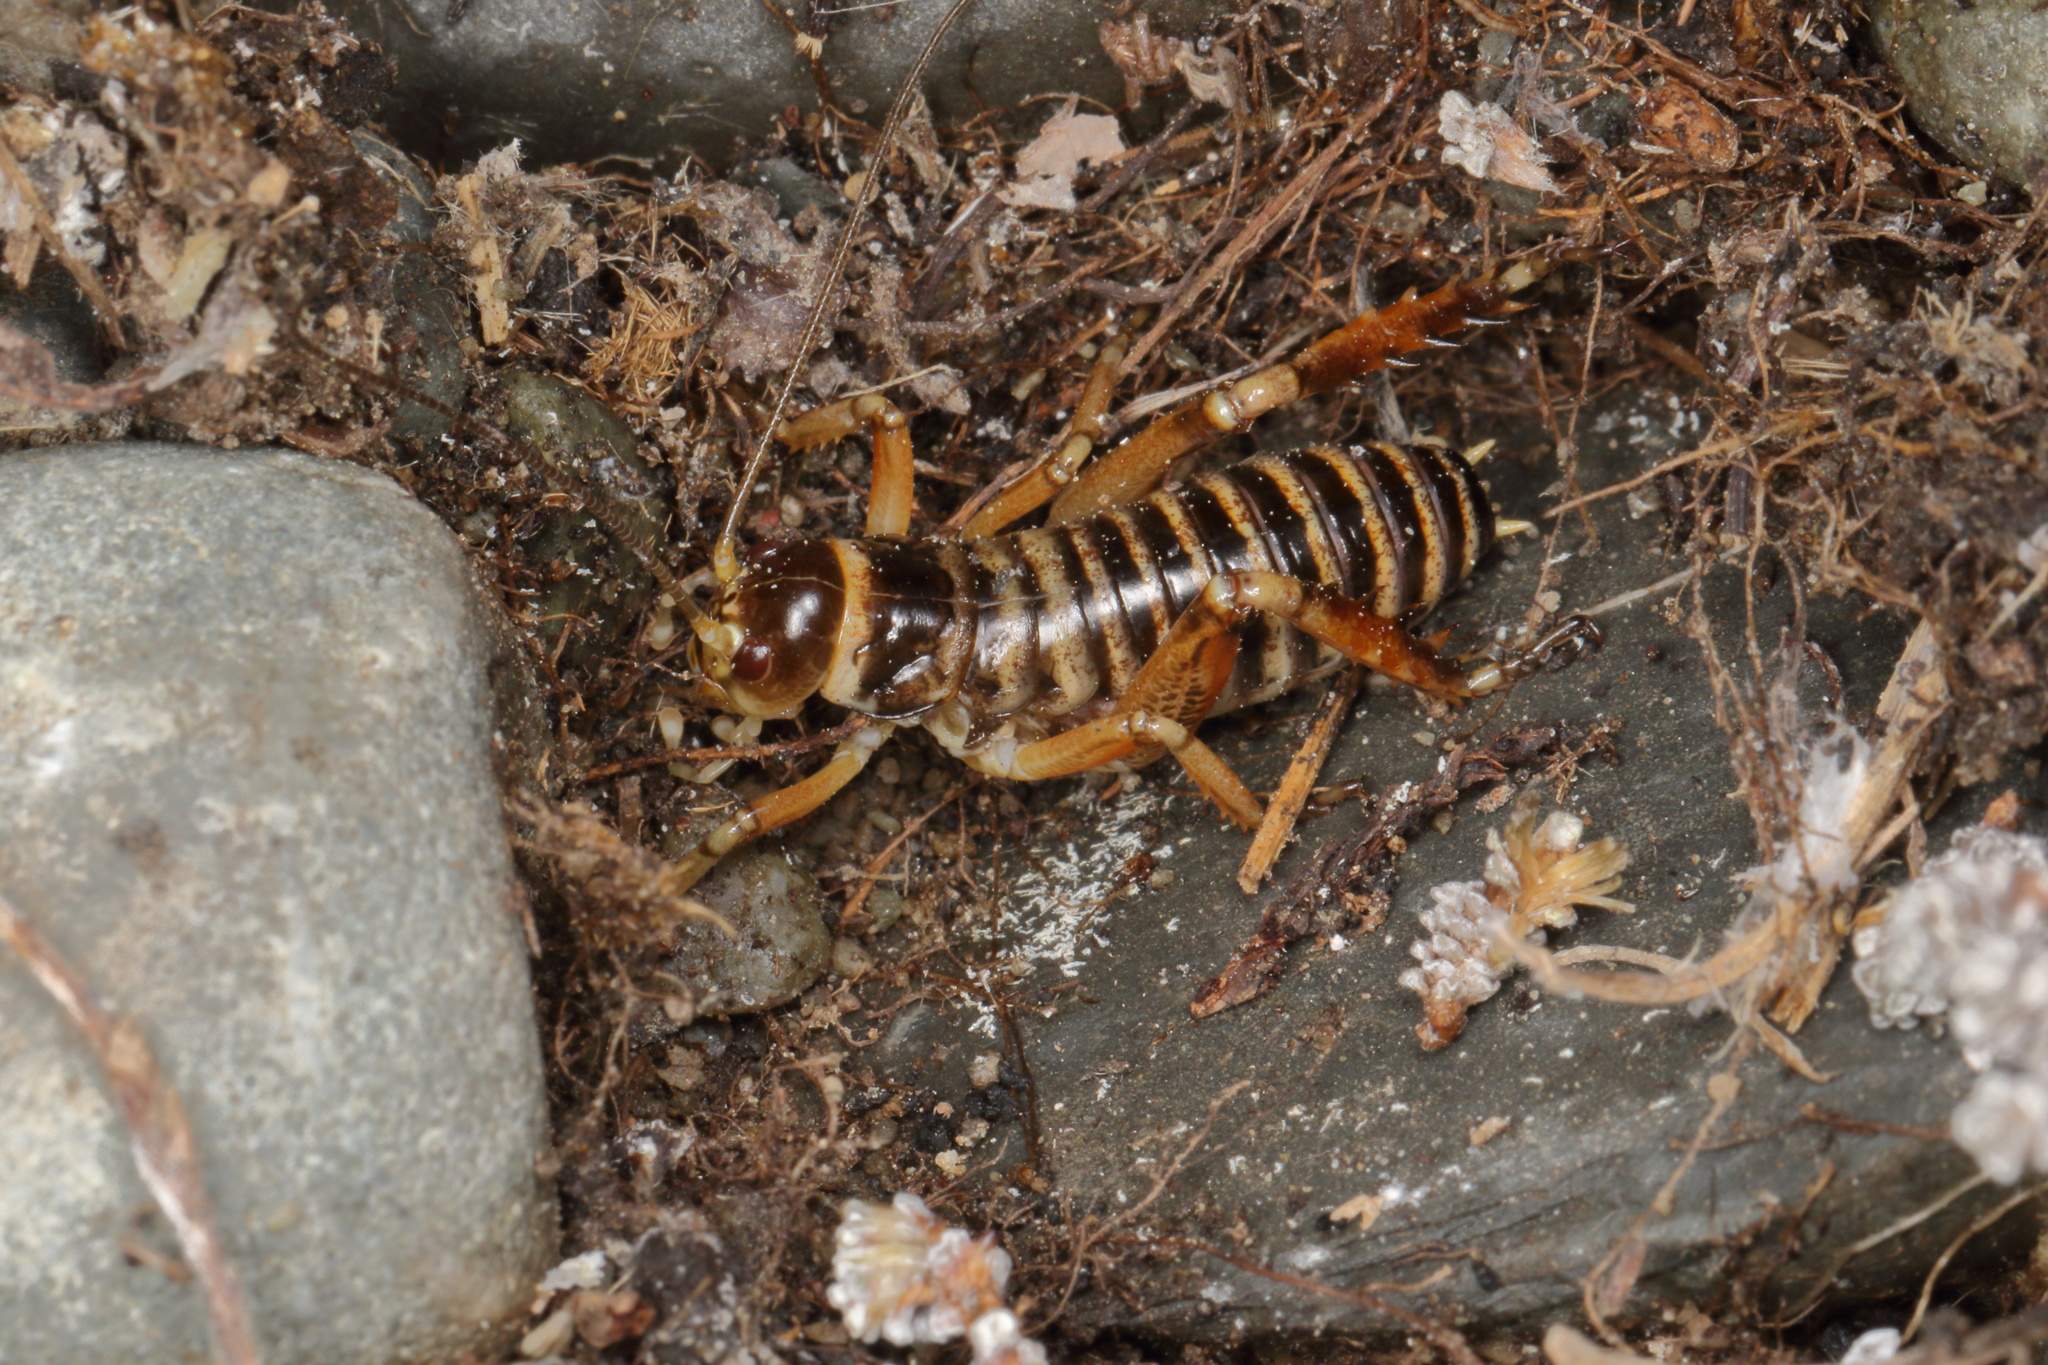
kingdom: Animalia
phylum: Arthropoda
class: Insecta
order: Orthoptera
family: Anostostomatidae
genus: Hemideina
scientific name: Hemideina maori
